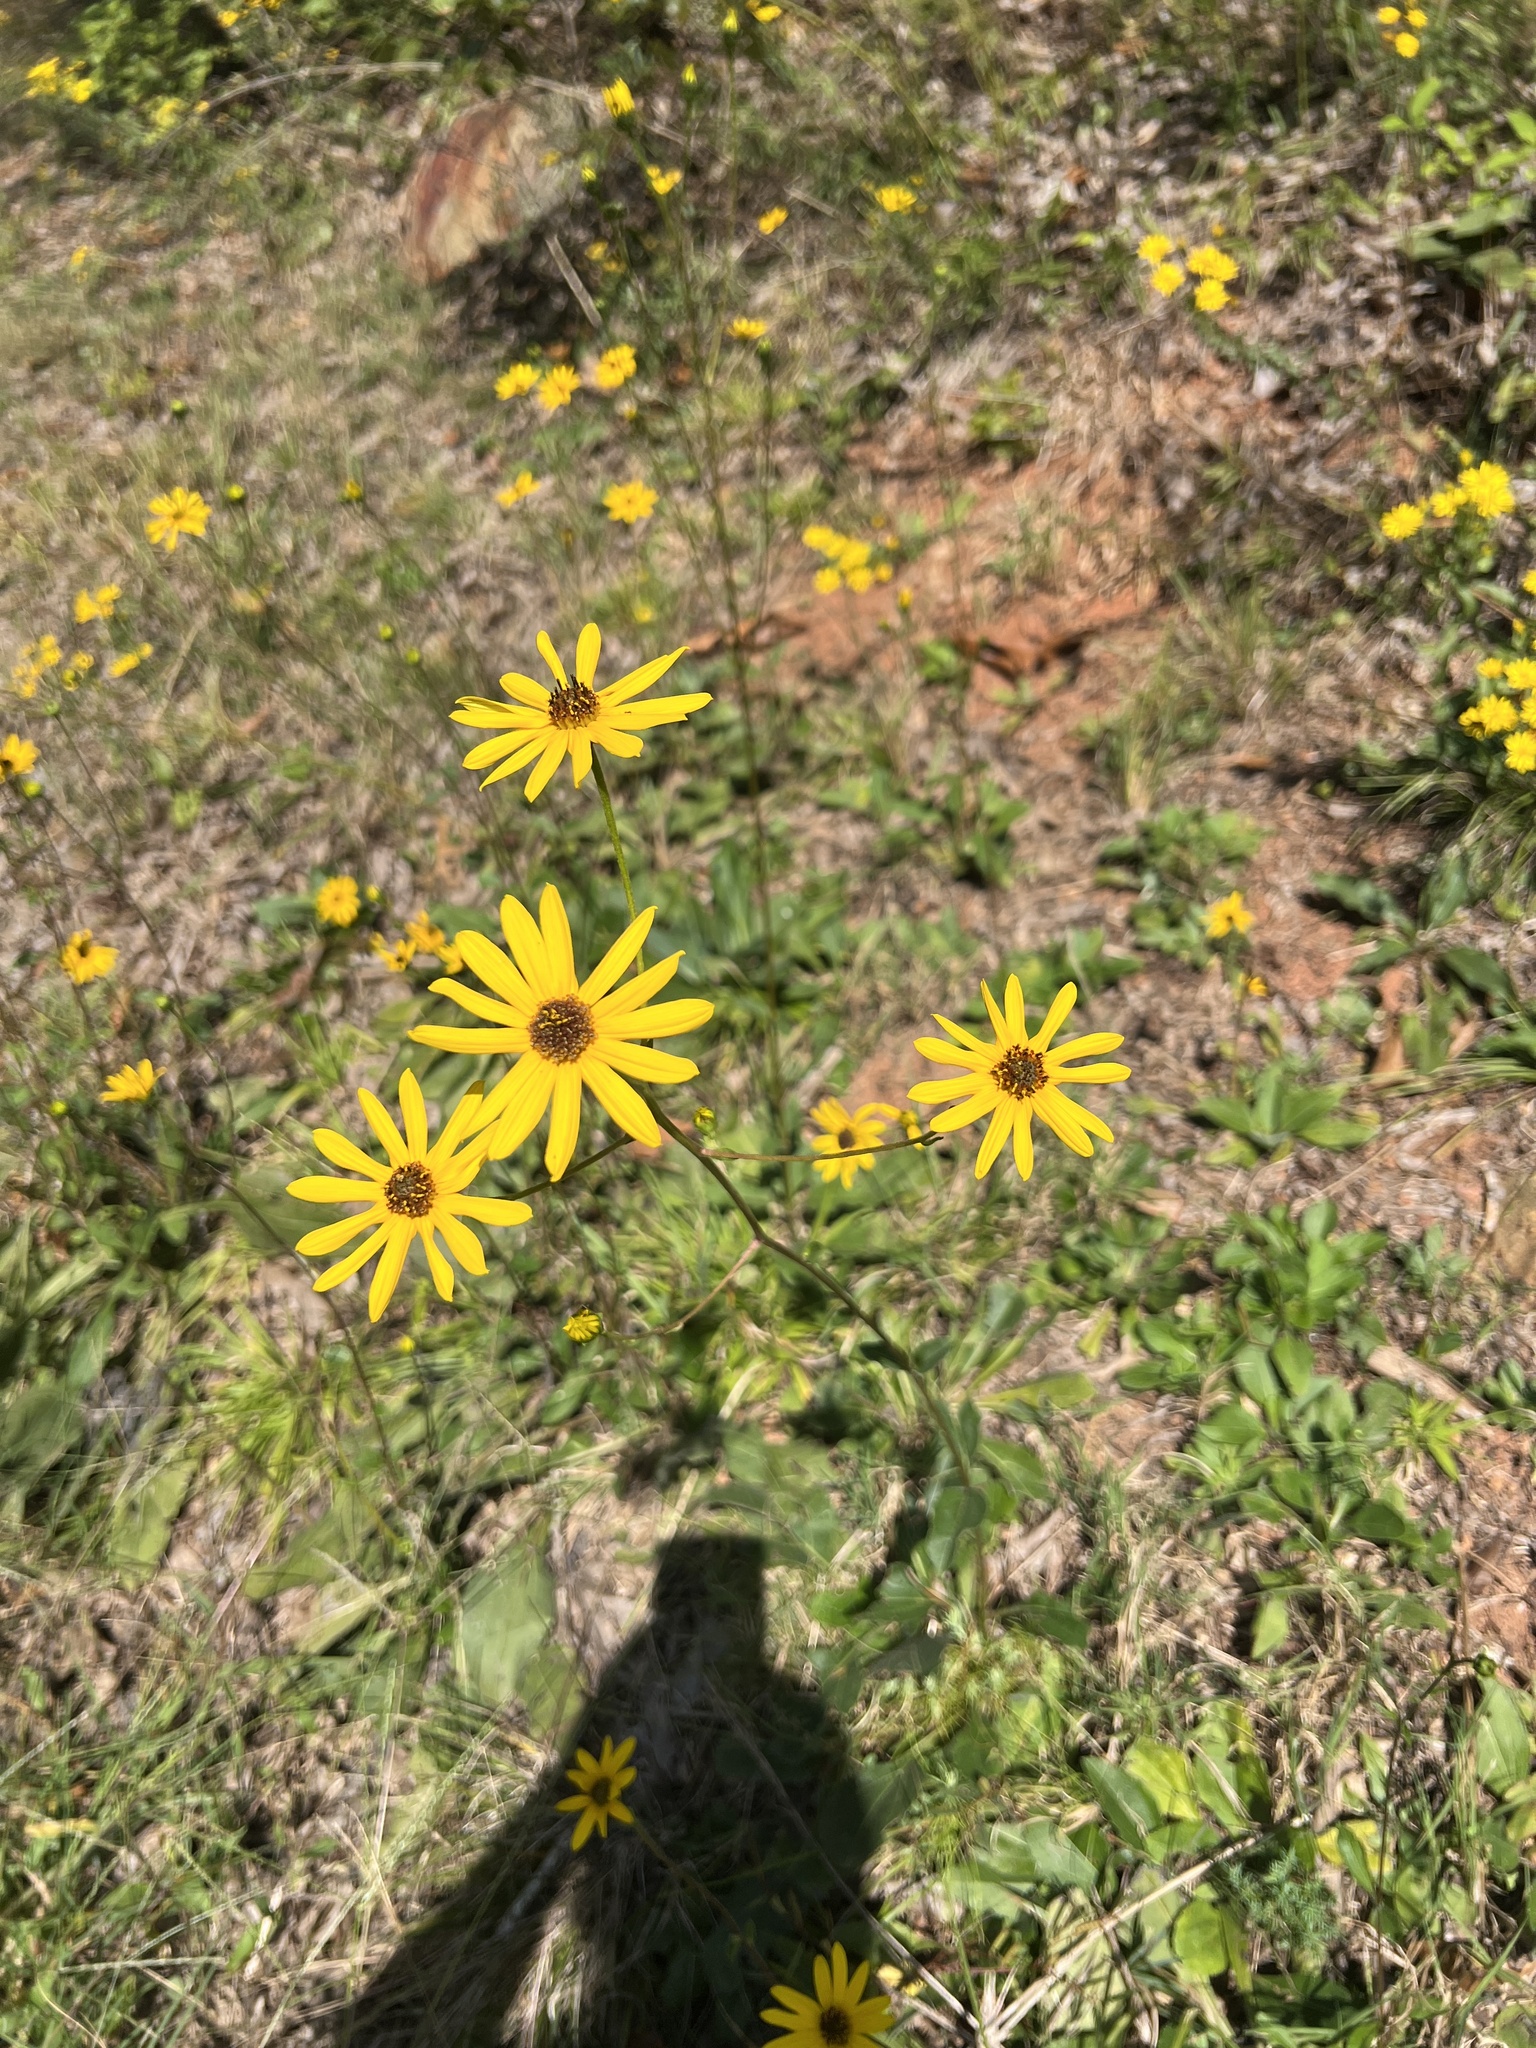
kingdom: Plantae
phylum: Tracheophyta
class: Magnoliopsida
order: Asterales
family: Asteraceae
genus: Helianthus
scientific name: Helianthus atrorubens
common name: Dark-eyed sunflower
